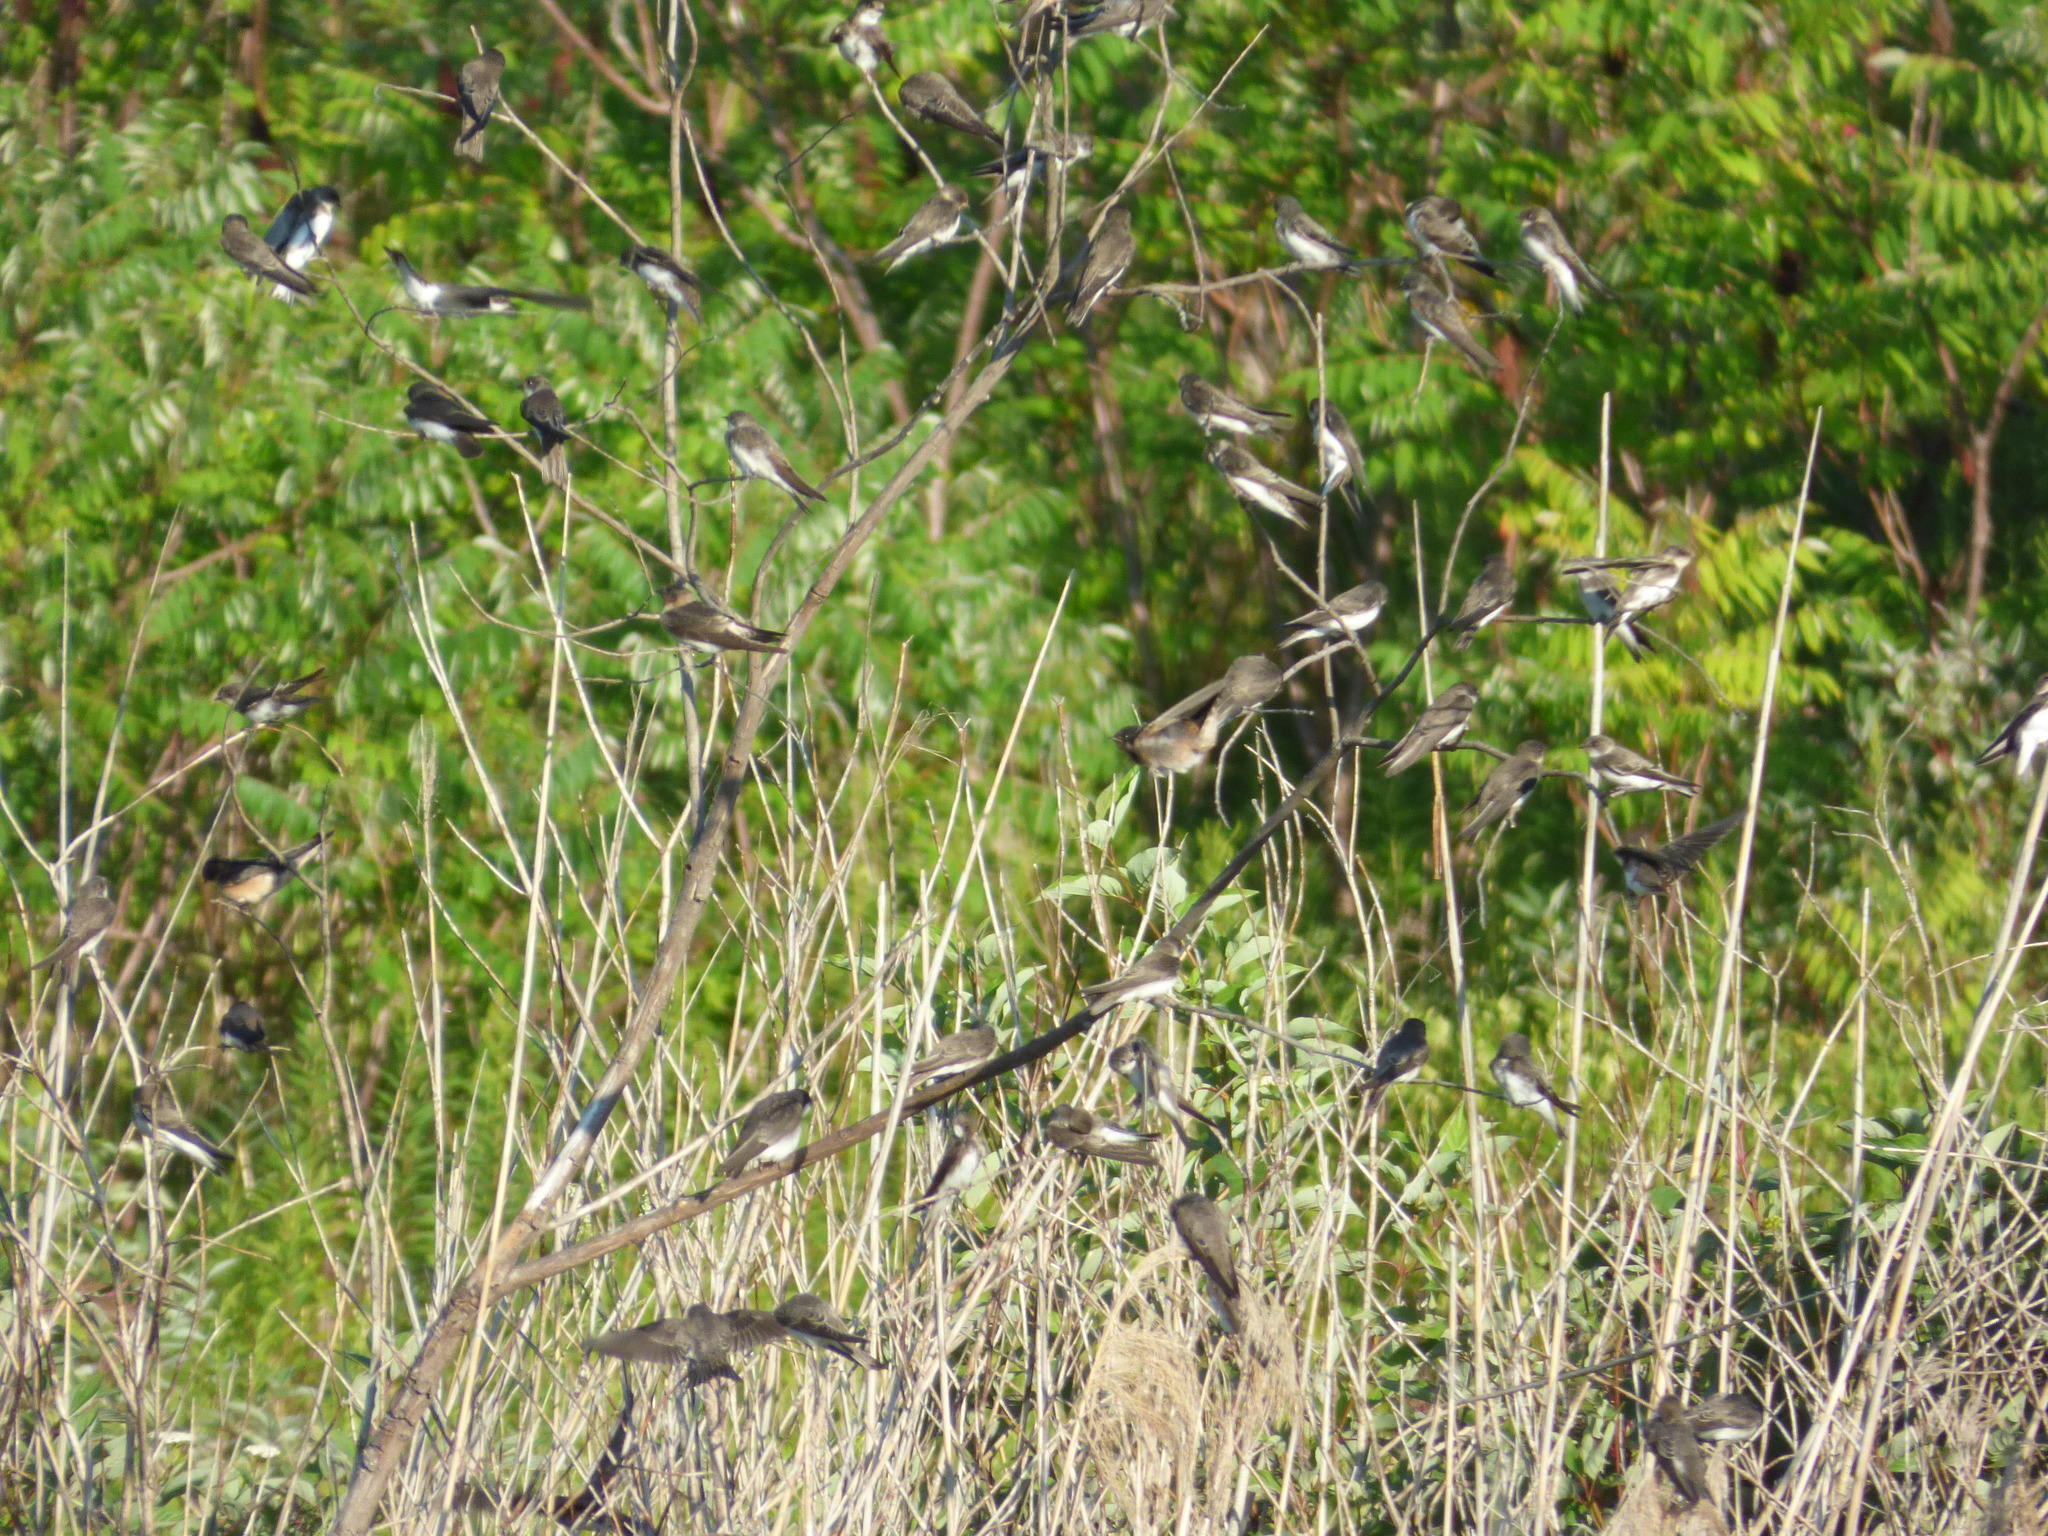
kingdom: Animalia
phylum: Chordata
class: Aves
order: Passeriformes
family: Hirundinidae
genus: Riparia
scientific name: Riparia riparia
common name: Sand martin
